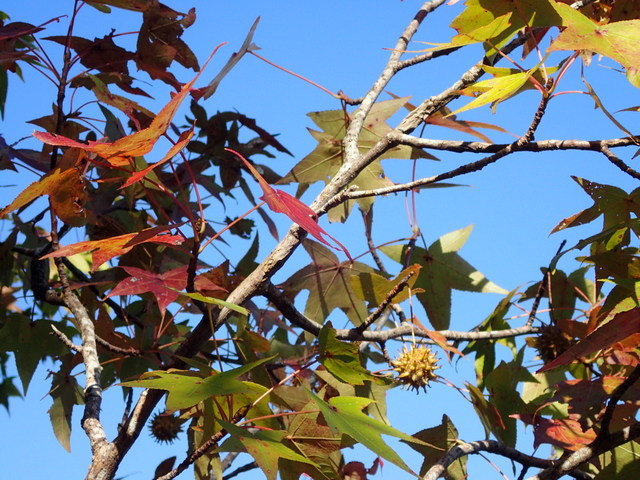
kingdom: Plantae
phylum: Tracheophyta
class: Magnoliopsida
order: Saxifragales
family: Altingiaceae
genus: Liquidambar
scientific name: Liquidambar styraciflua
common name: Sweet gum
